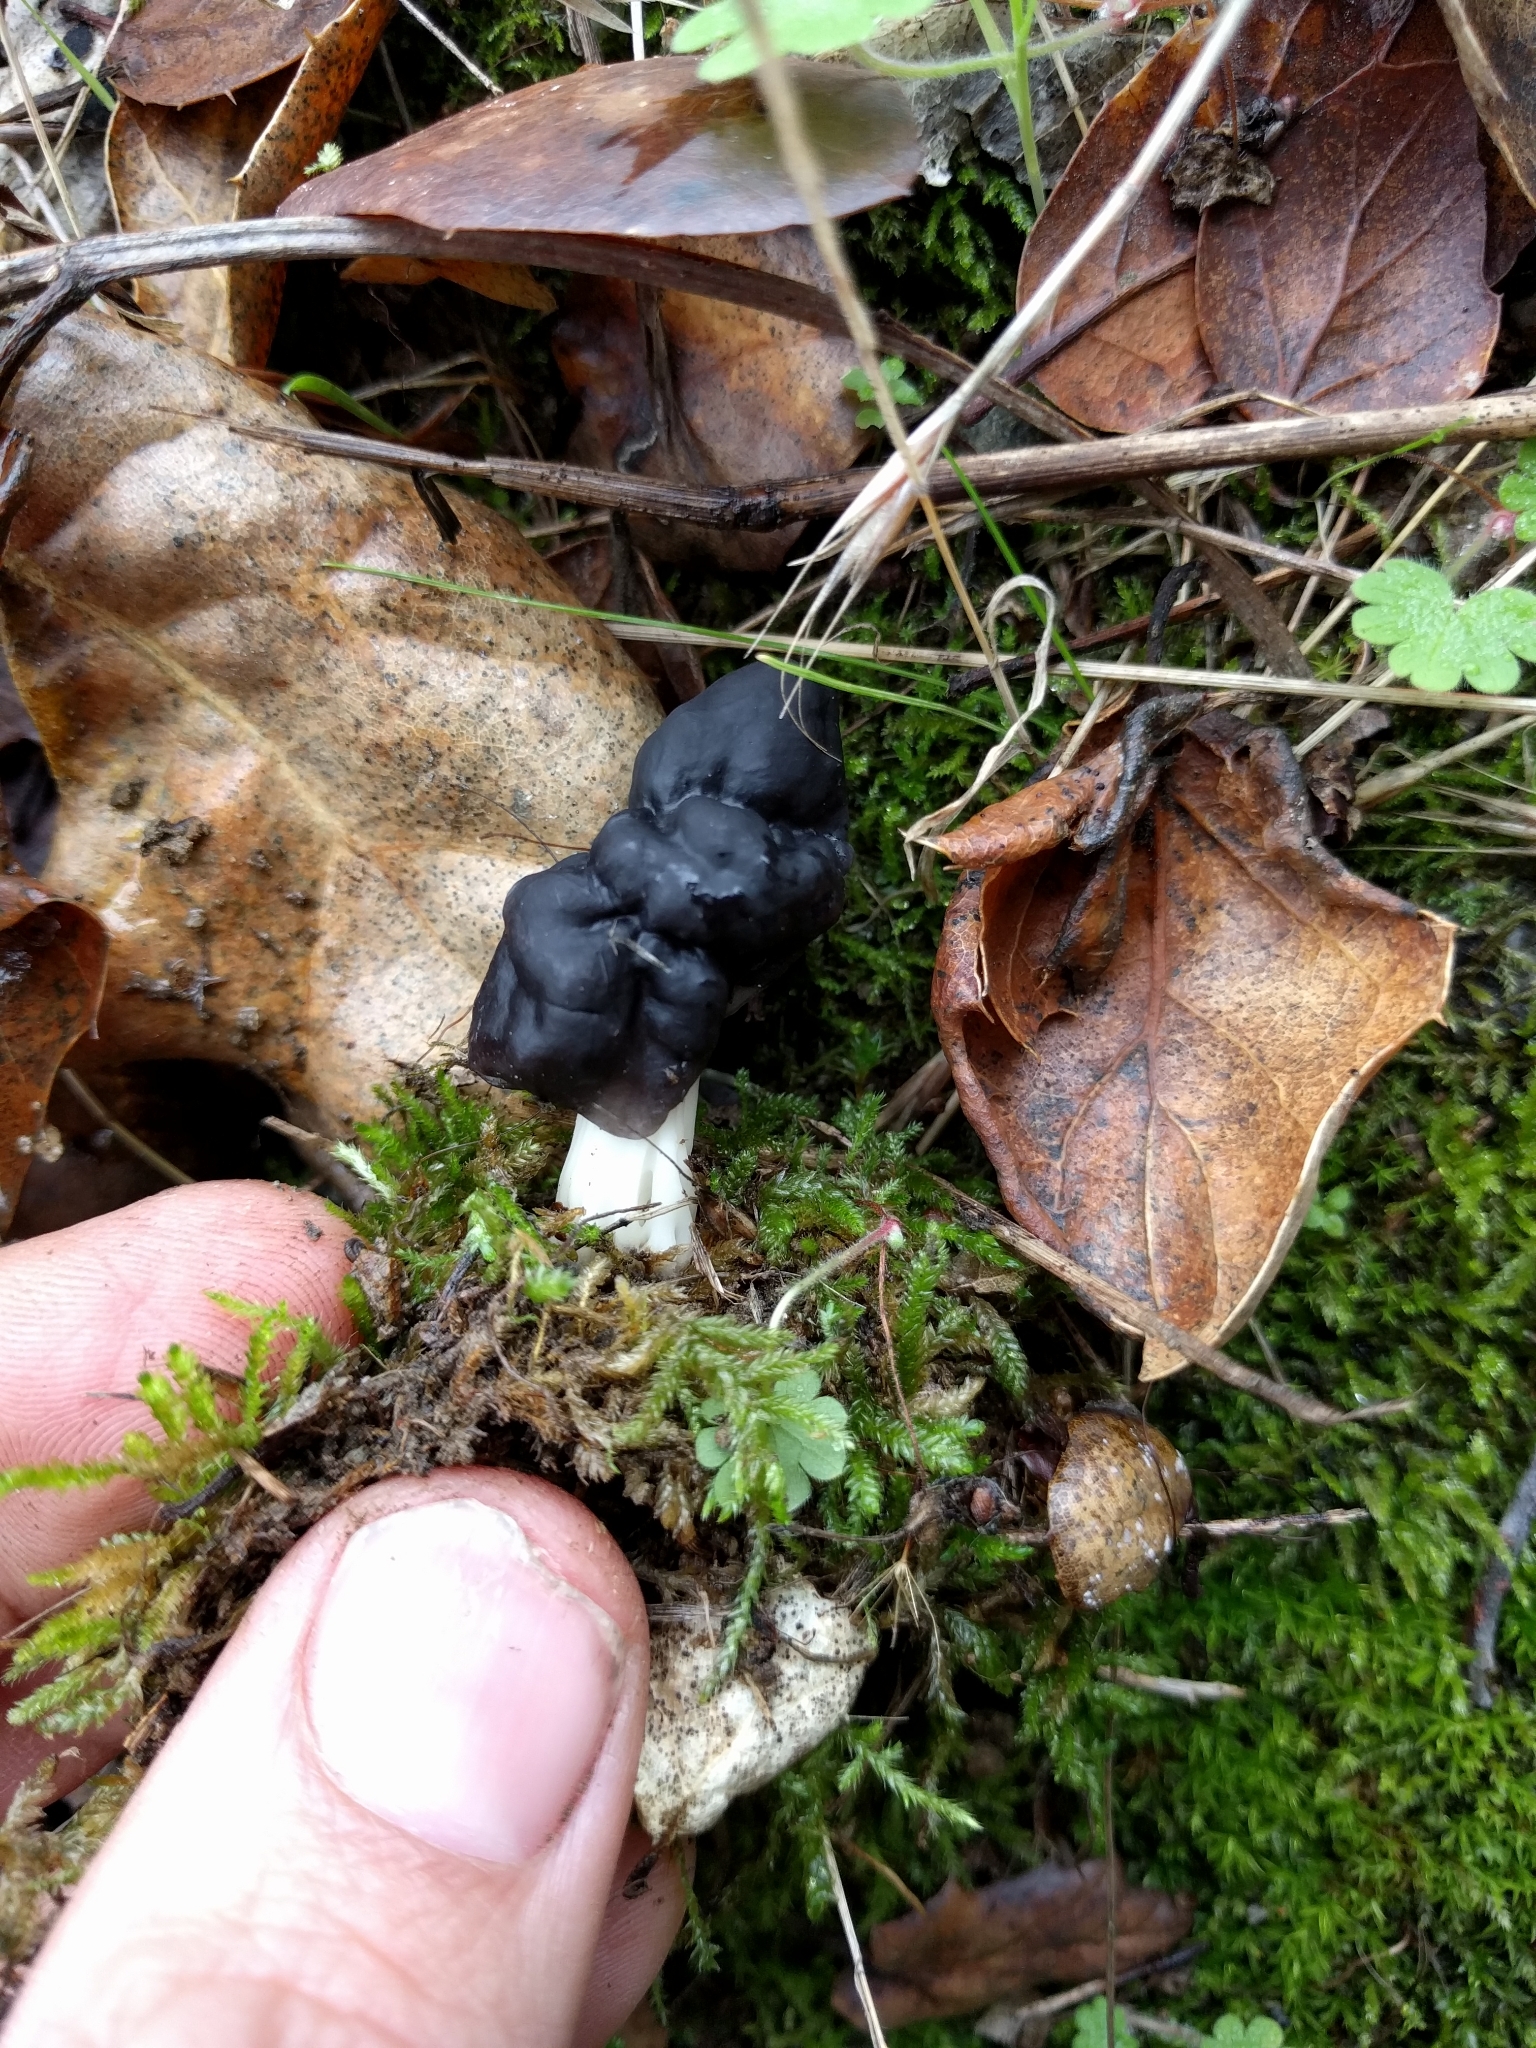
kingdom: Fungi
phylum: Ascomycota
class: Pezizomycetes
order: Pezizales
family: Helvellaceae
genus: Helvella
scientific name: Helvella dryophila
